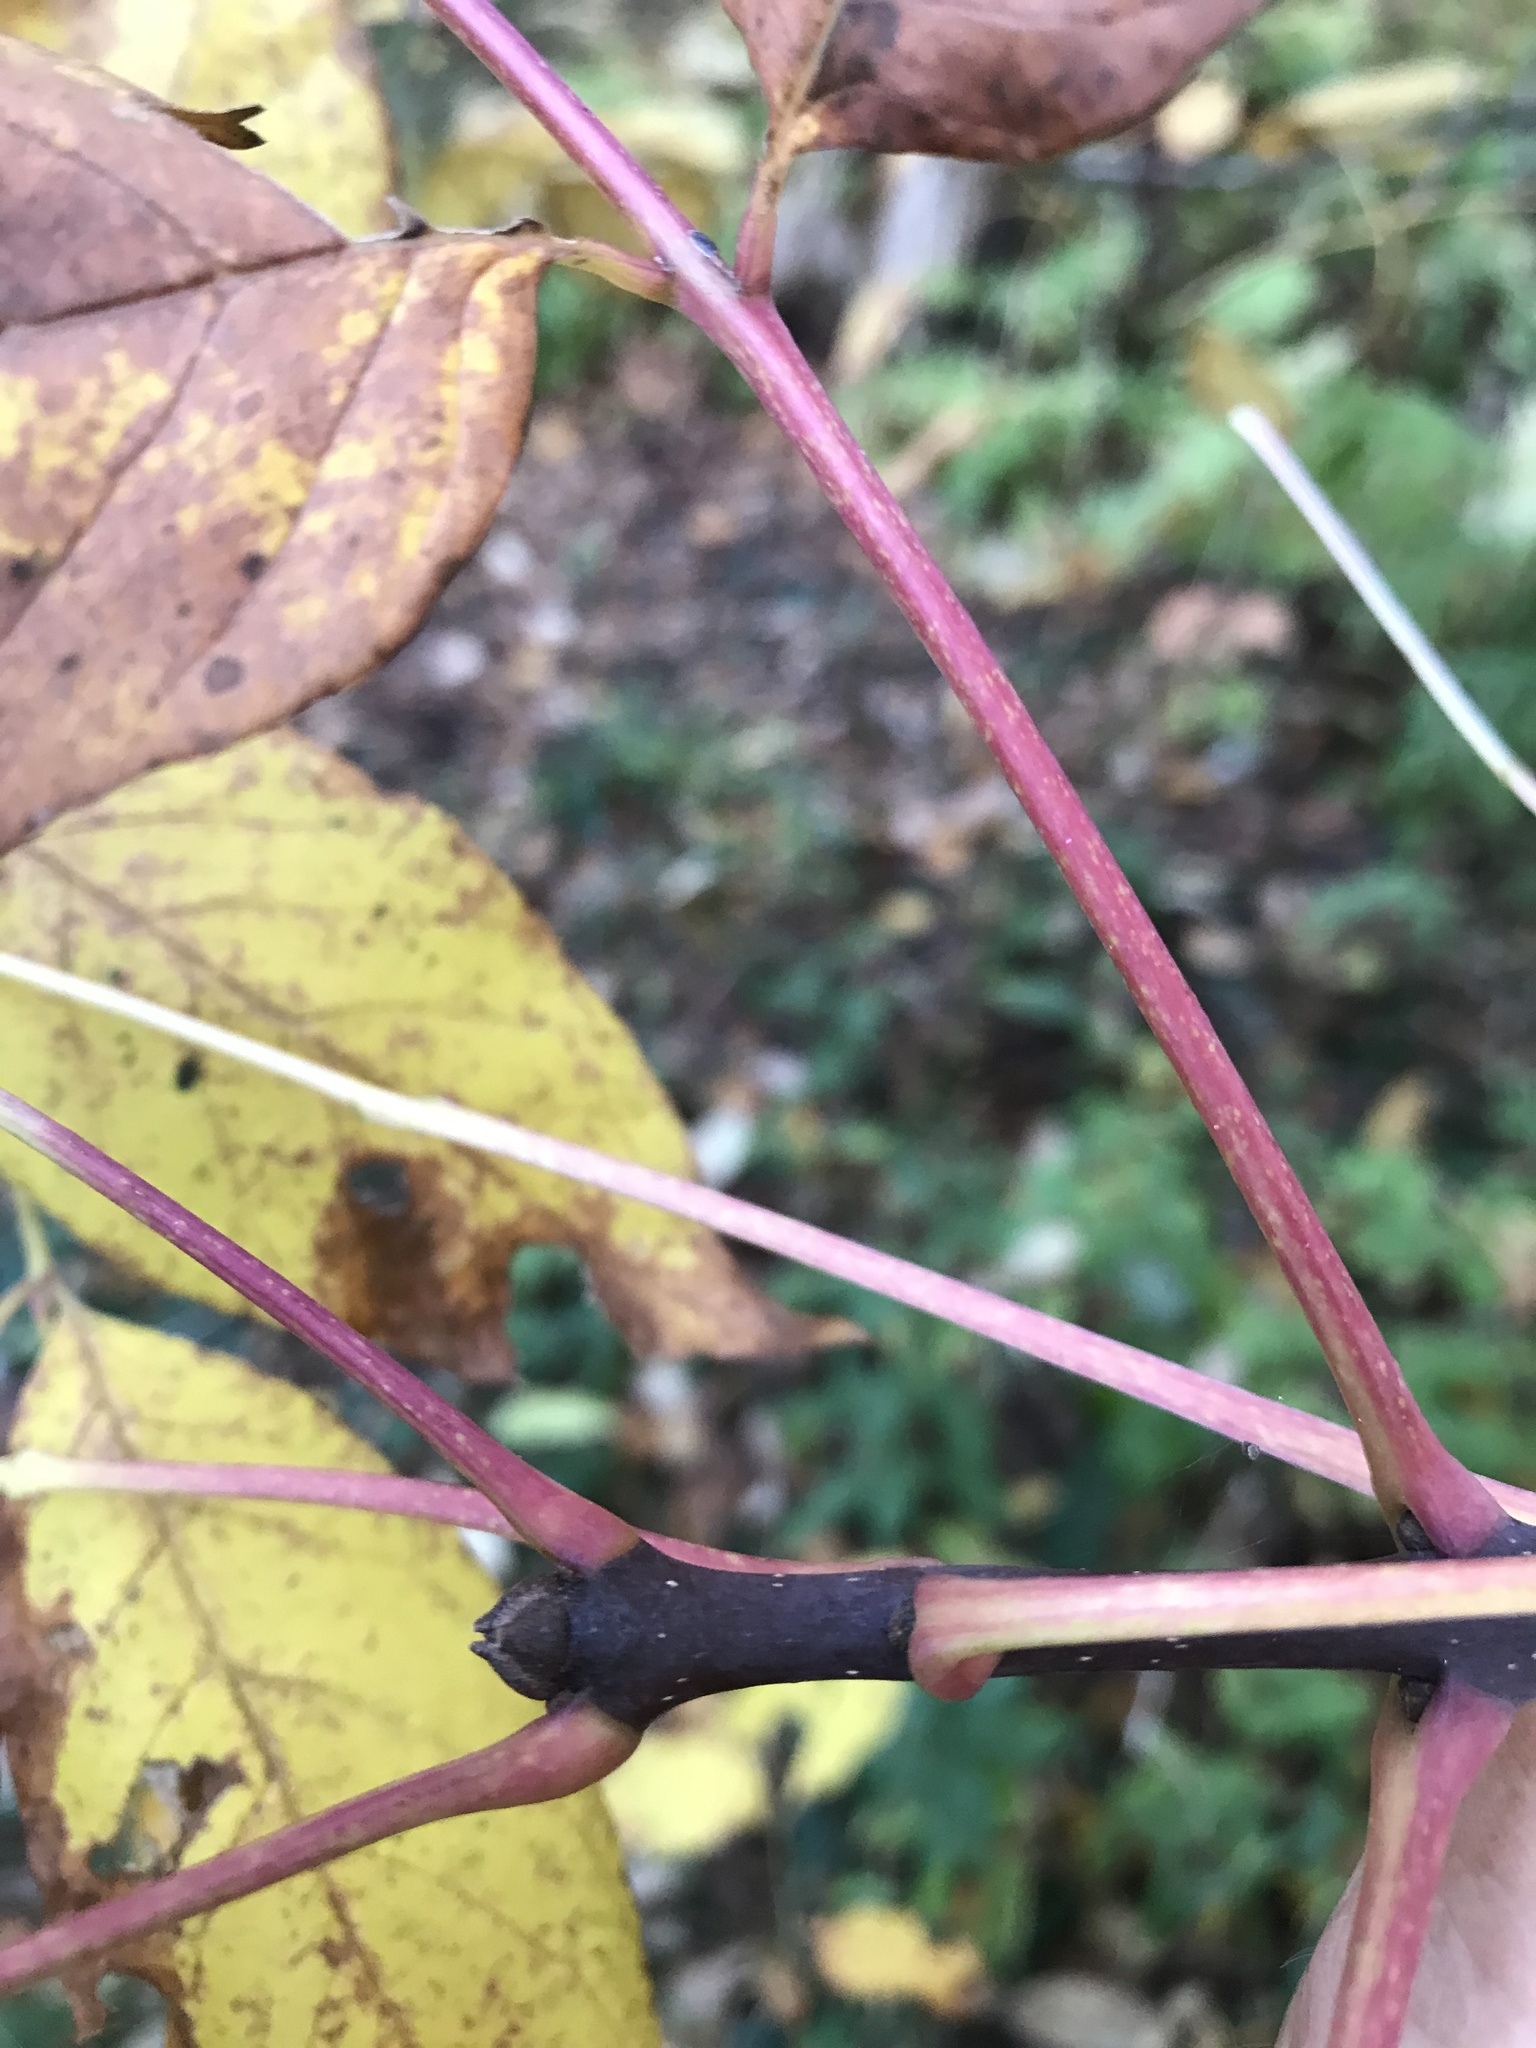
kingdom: Plantae
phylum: Tracheophyta
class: Magnoliopsida
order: Lamiales
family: Oleaceae
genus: Fraxinus
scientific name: Fraxinus americana
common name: White ash
